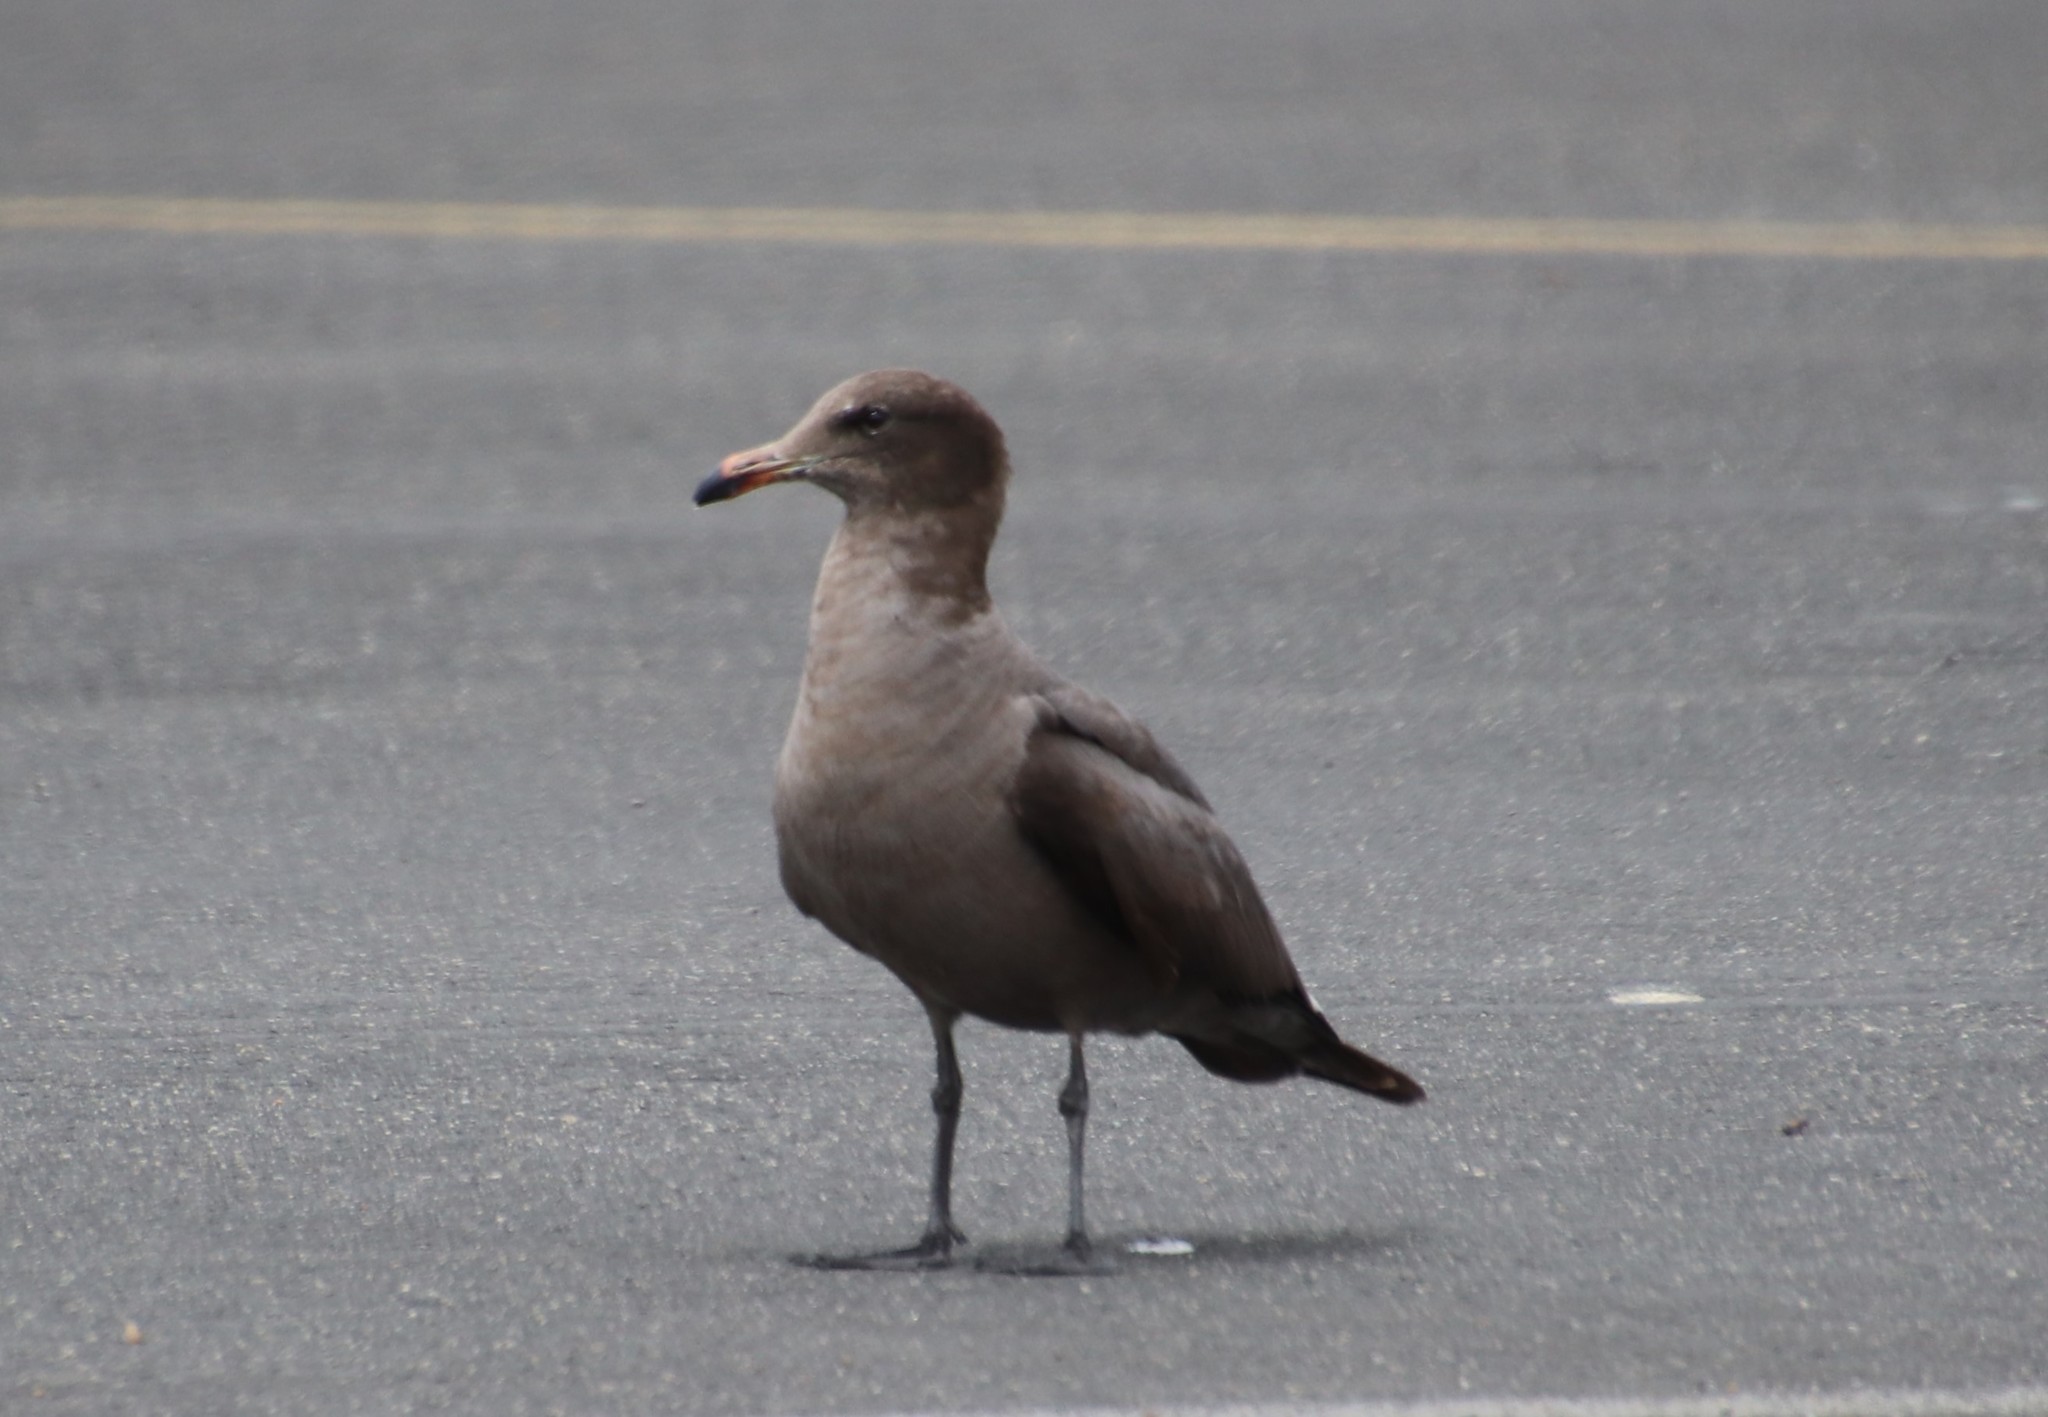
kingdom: Animalia
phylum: Chordata
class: Aves
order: Charadriiformes
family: Laridae
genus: Larus
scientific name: Larus heermanni
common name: Heermann's gull
